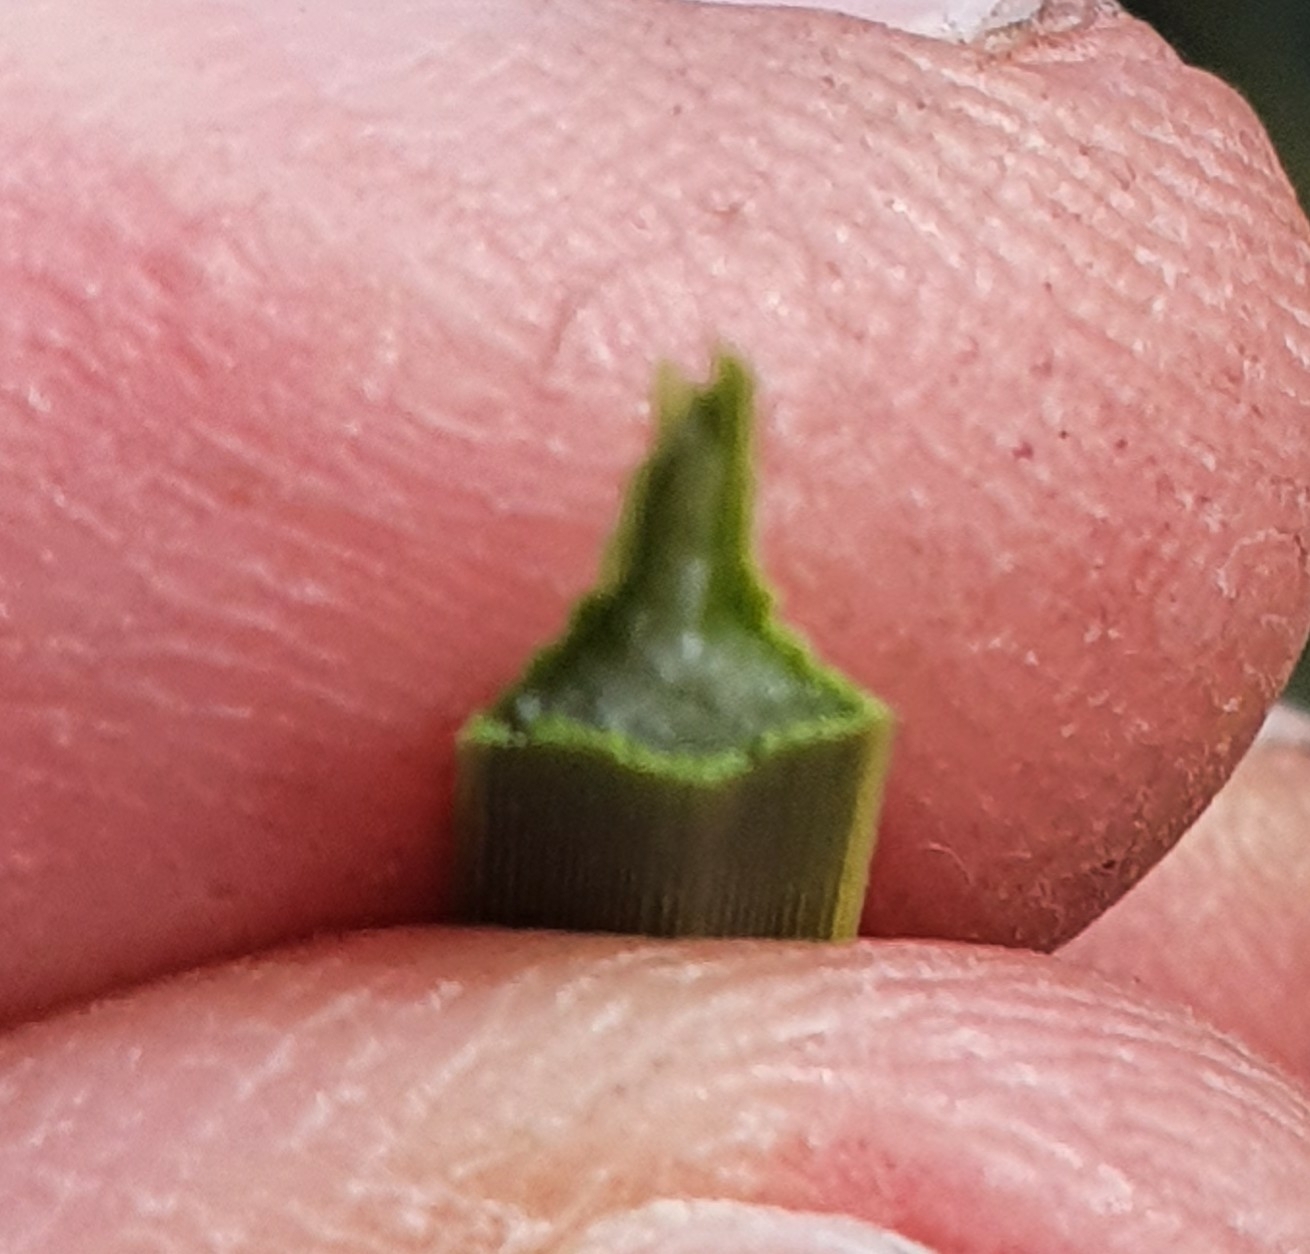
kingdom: Plantae
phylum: Tracheophyta
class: Liliopsida
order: Asparagales
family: Asphodelaceae
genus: Xanthorrhoea
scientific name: Xanthorrhoea resinosa
